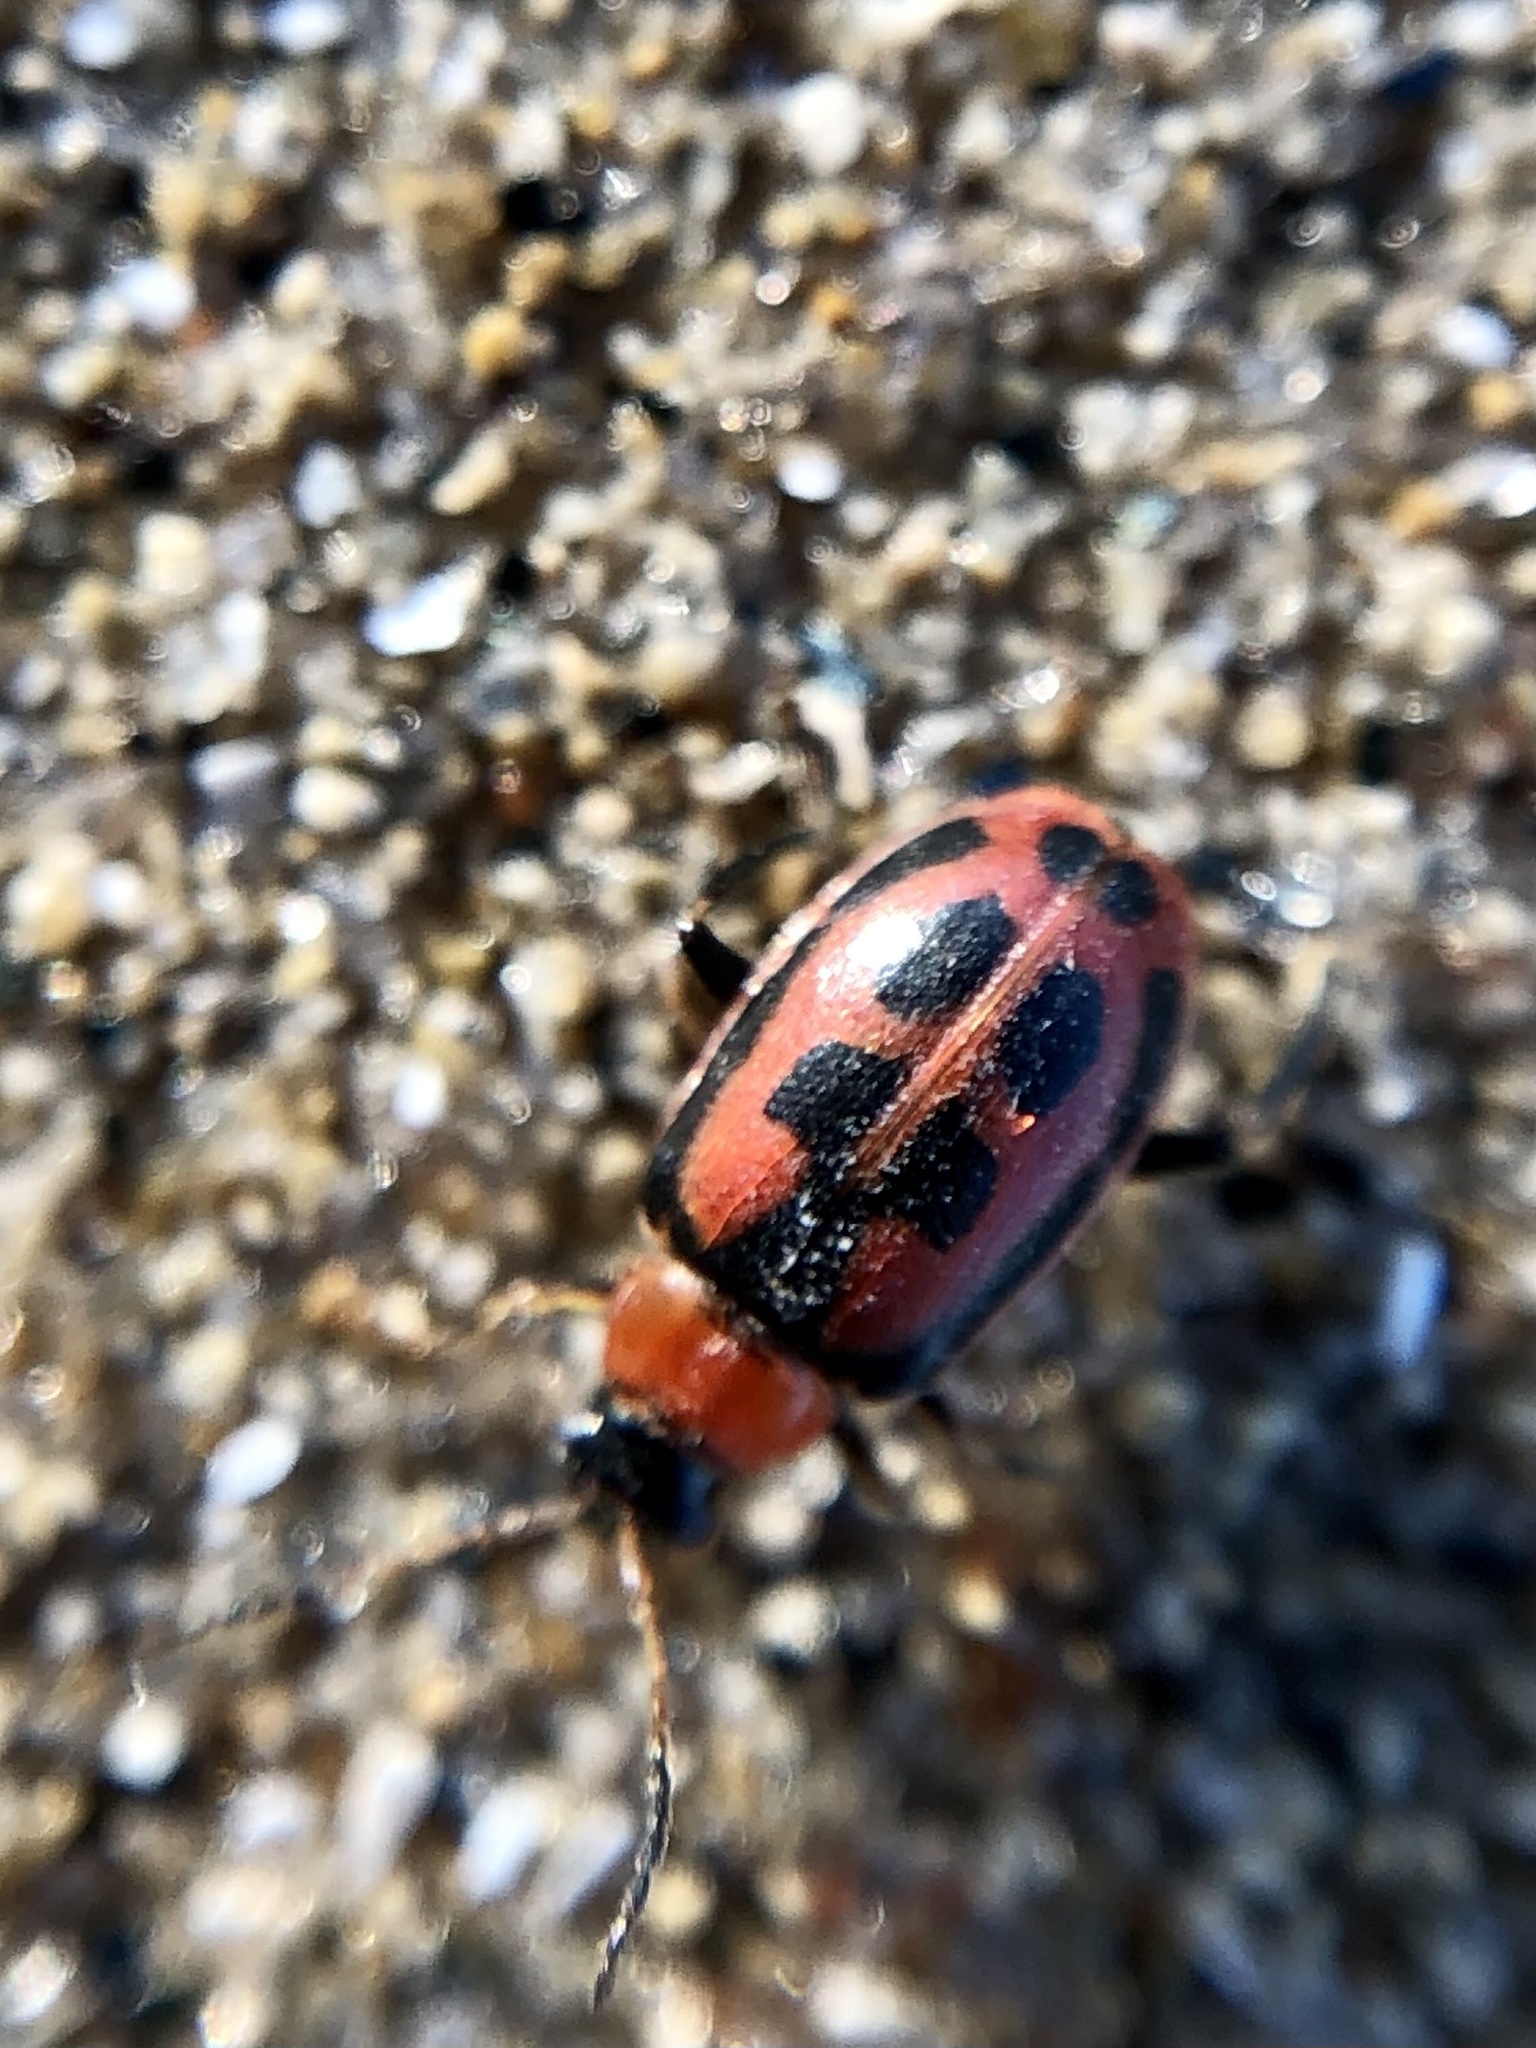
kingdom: Animalia
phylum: Arthropoda
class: Insecta
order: Coleoptera
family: Chrysomelidae
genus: Cerotoma
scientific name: Cerotoma trifurcata
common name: Bean leaf beetle
